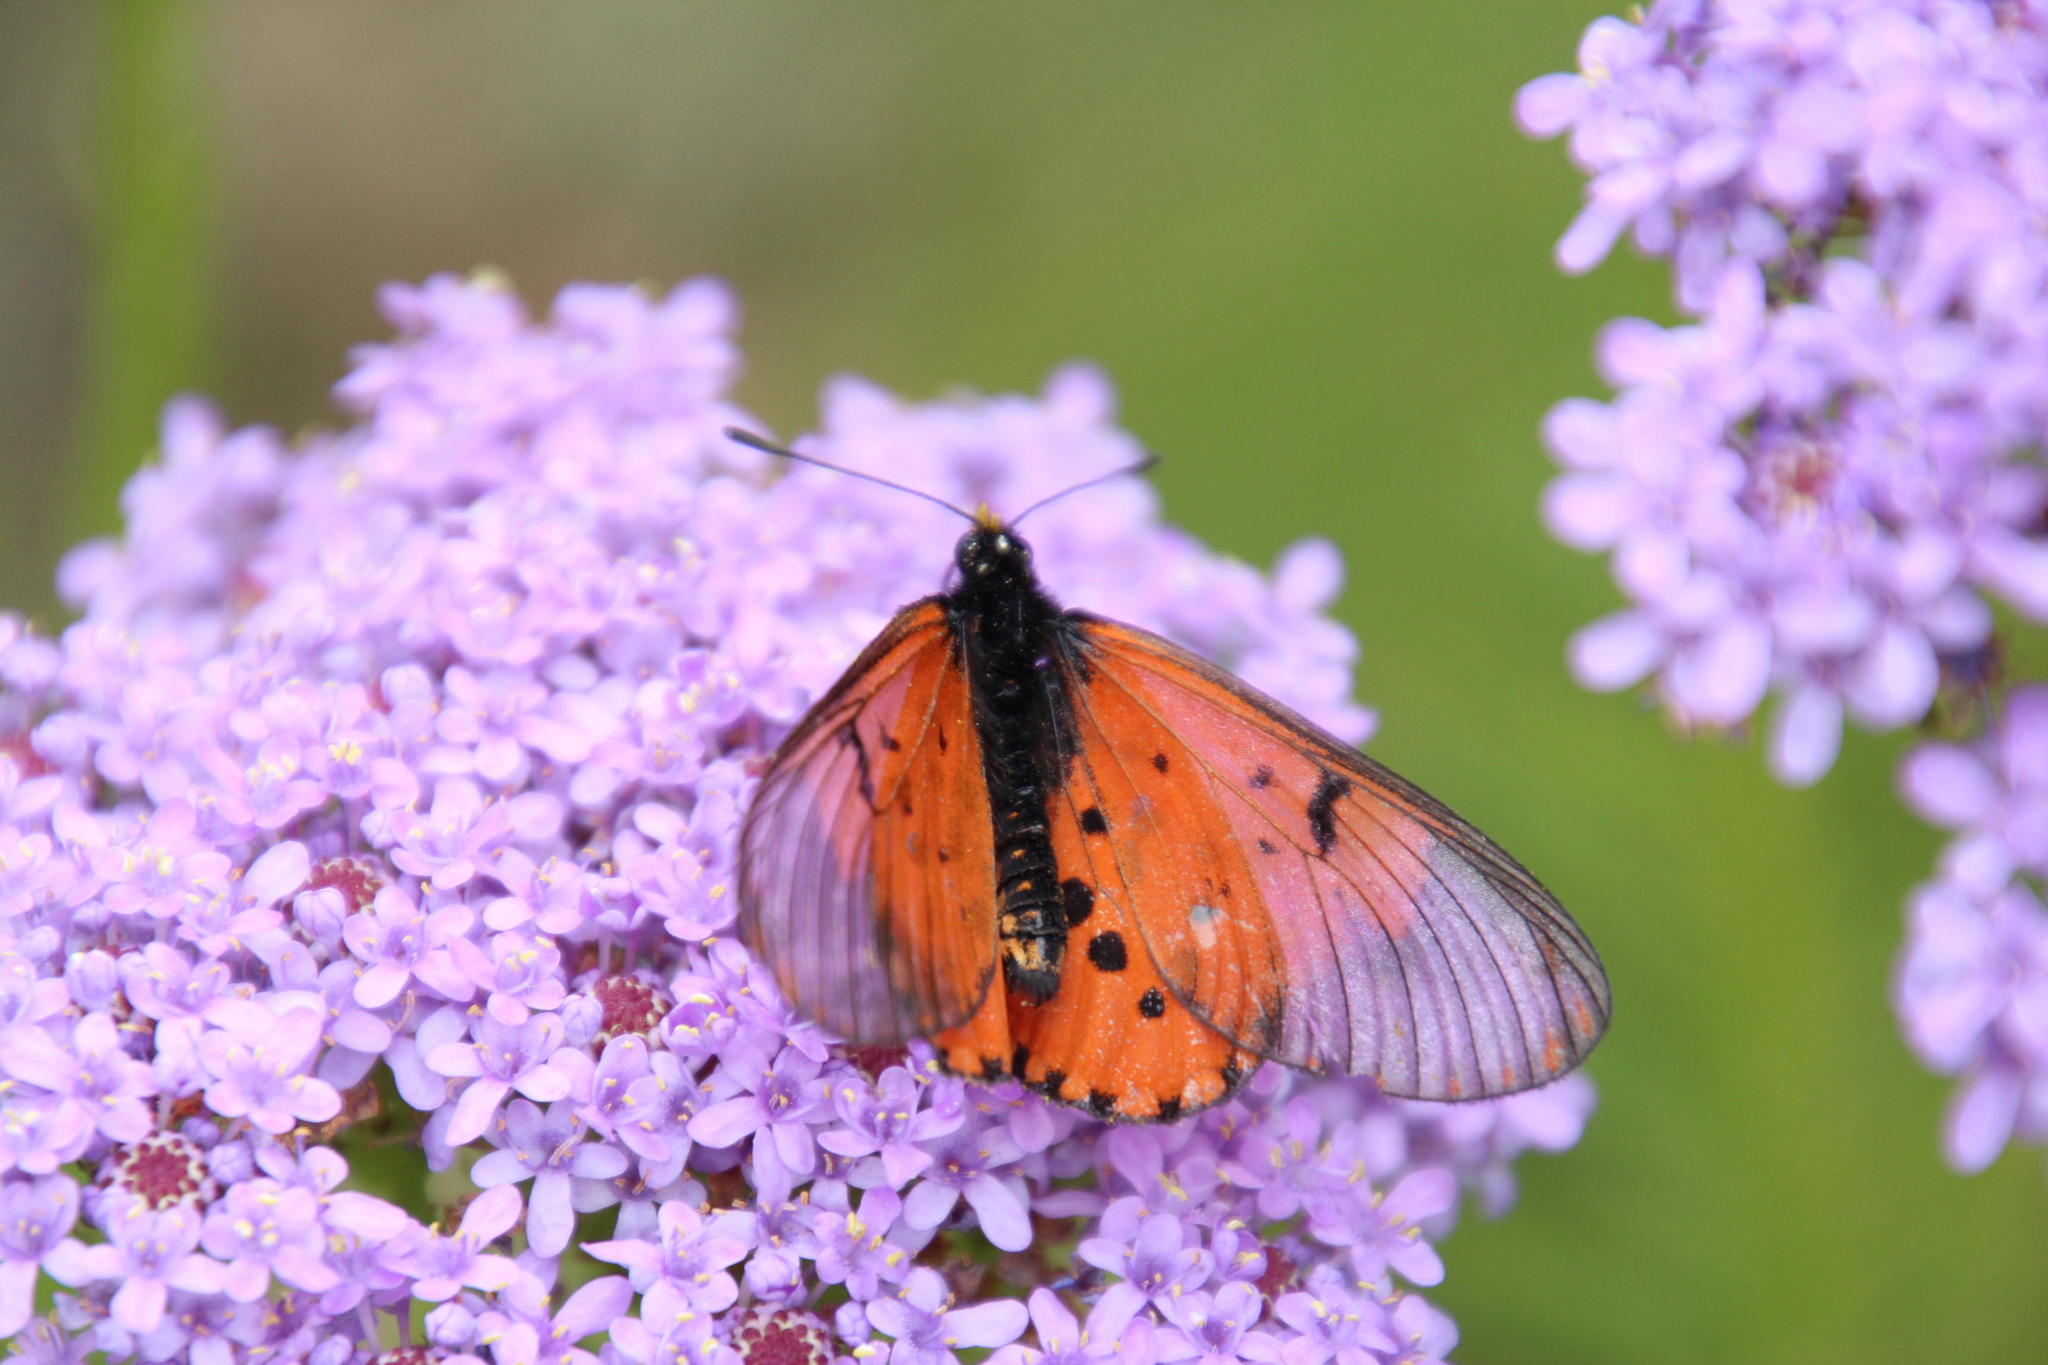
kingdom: Plantae
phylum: Tracheophyta
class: Magnoliopsida
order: Lamiales
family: Scrophulariaceae
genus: Pseudoselago
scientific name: Pseudoselago spuria
